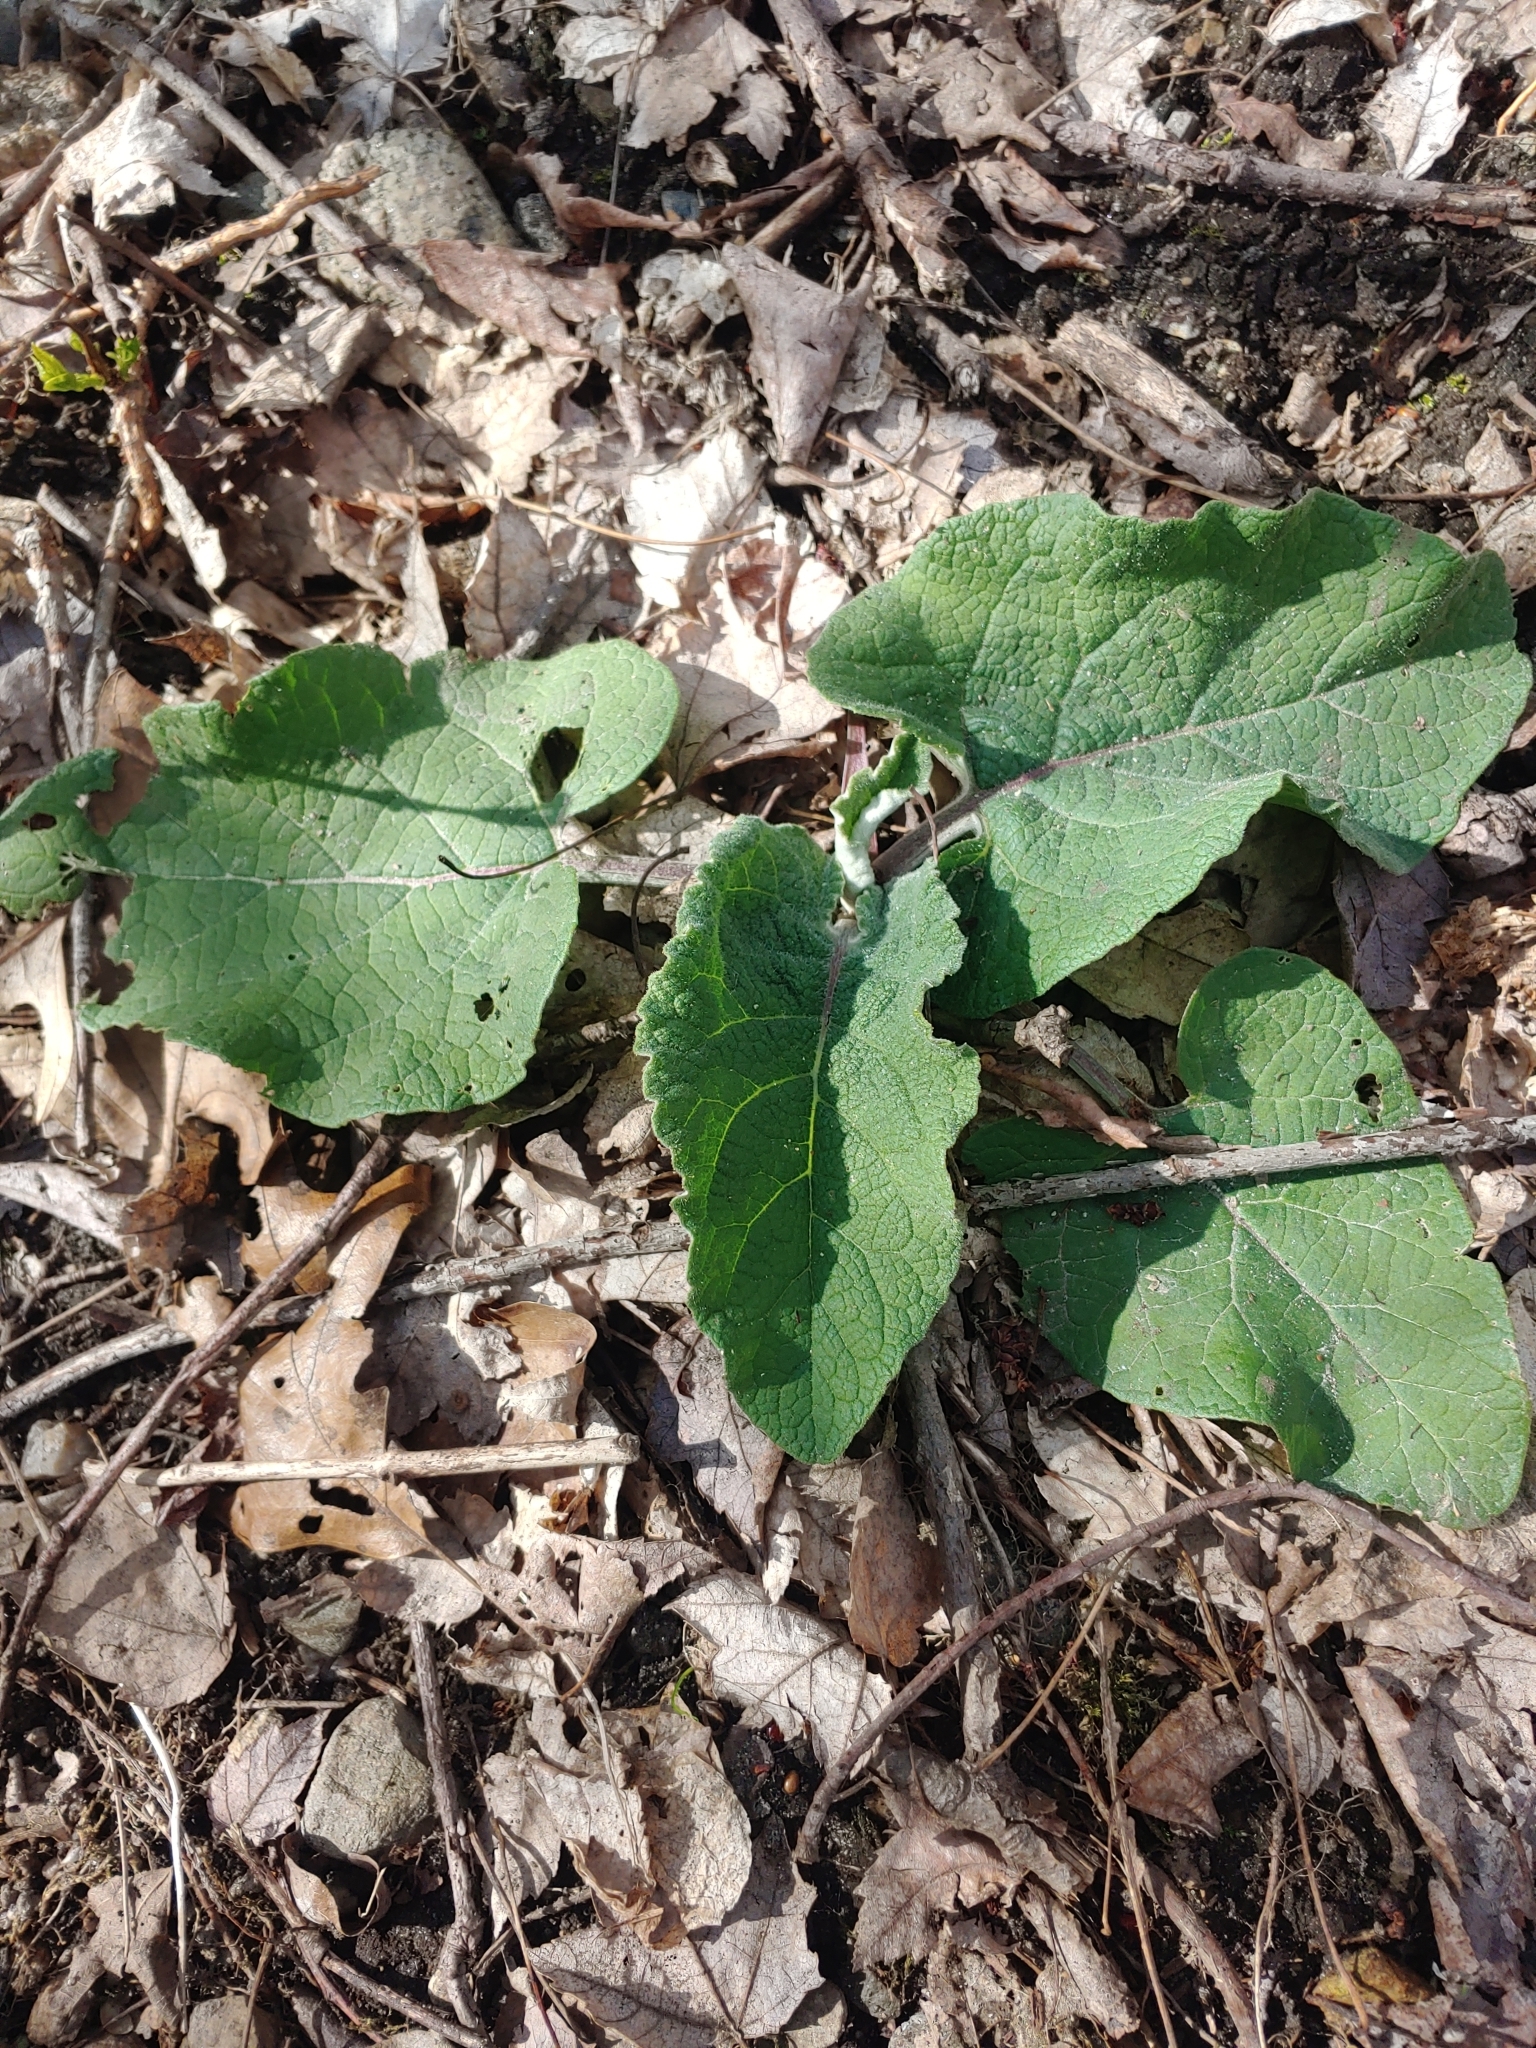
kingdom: Plantae
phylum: Tracheophyta
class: Magnoliopsida
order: Asterales
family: Asteraceae
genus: Arctium
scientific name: Arctium
